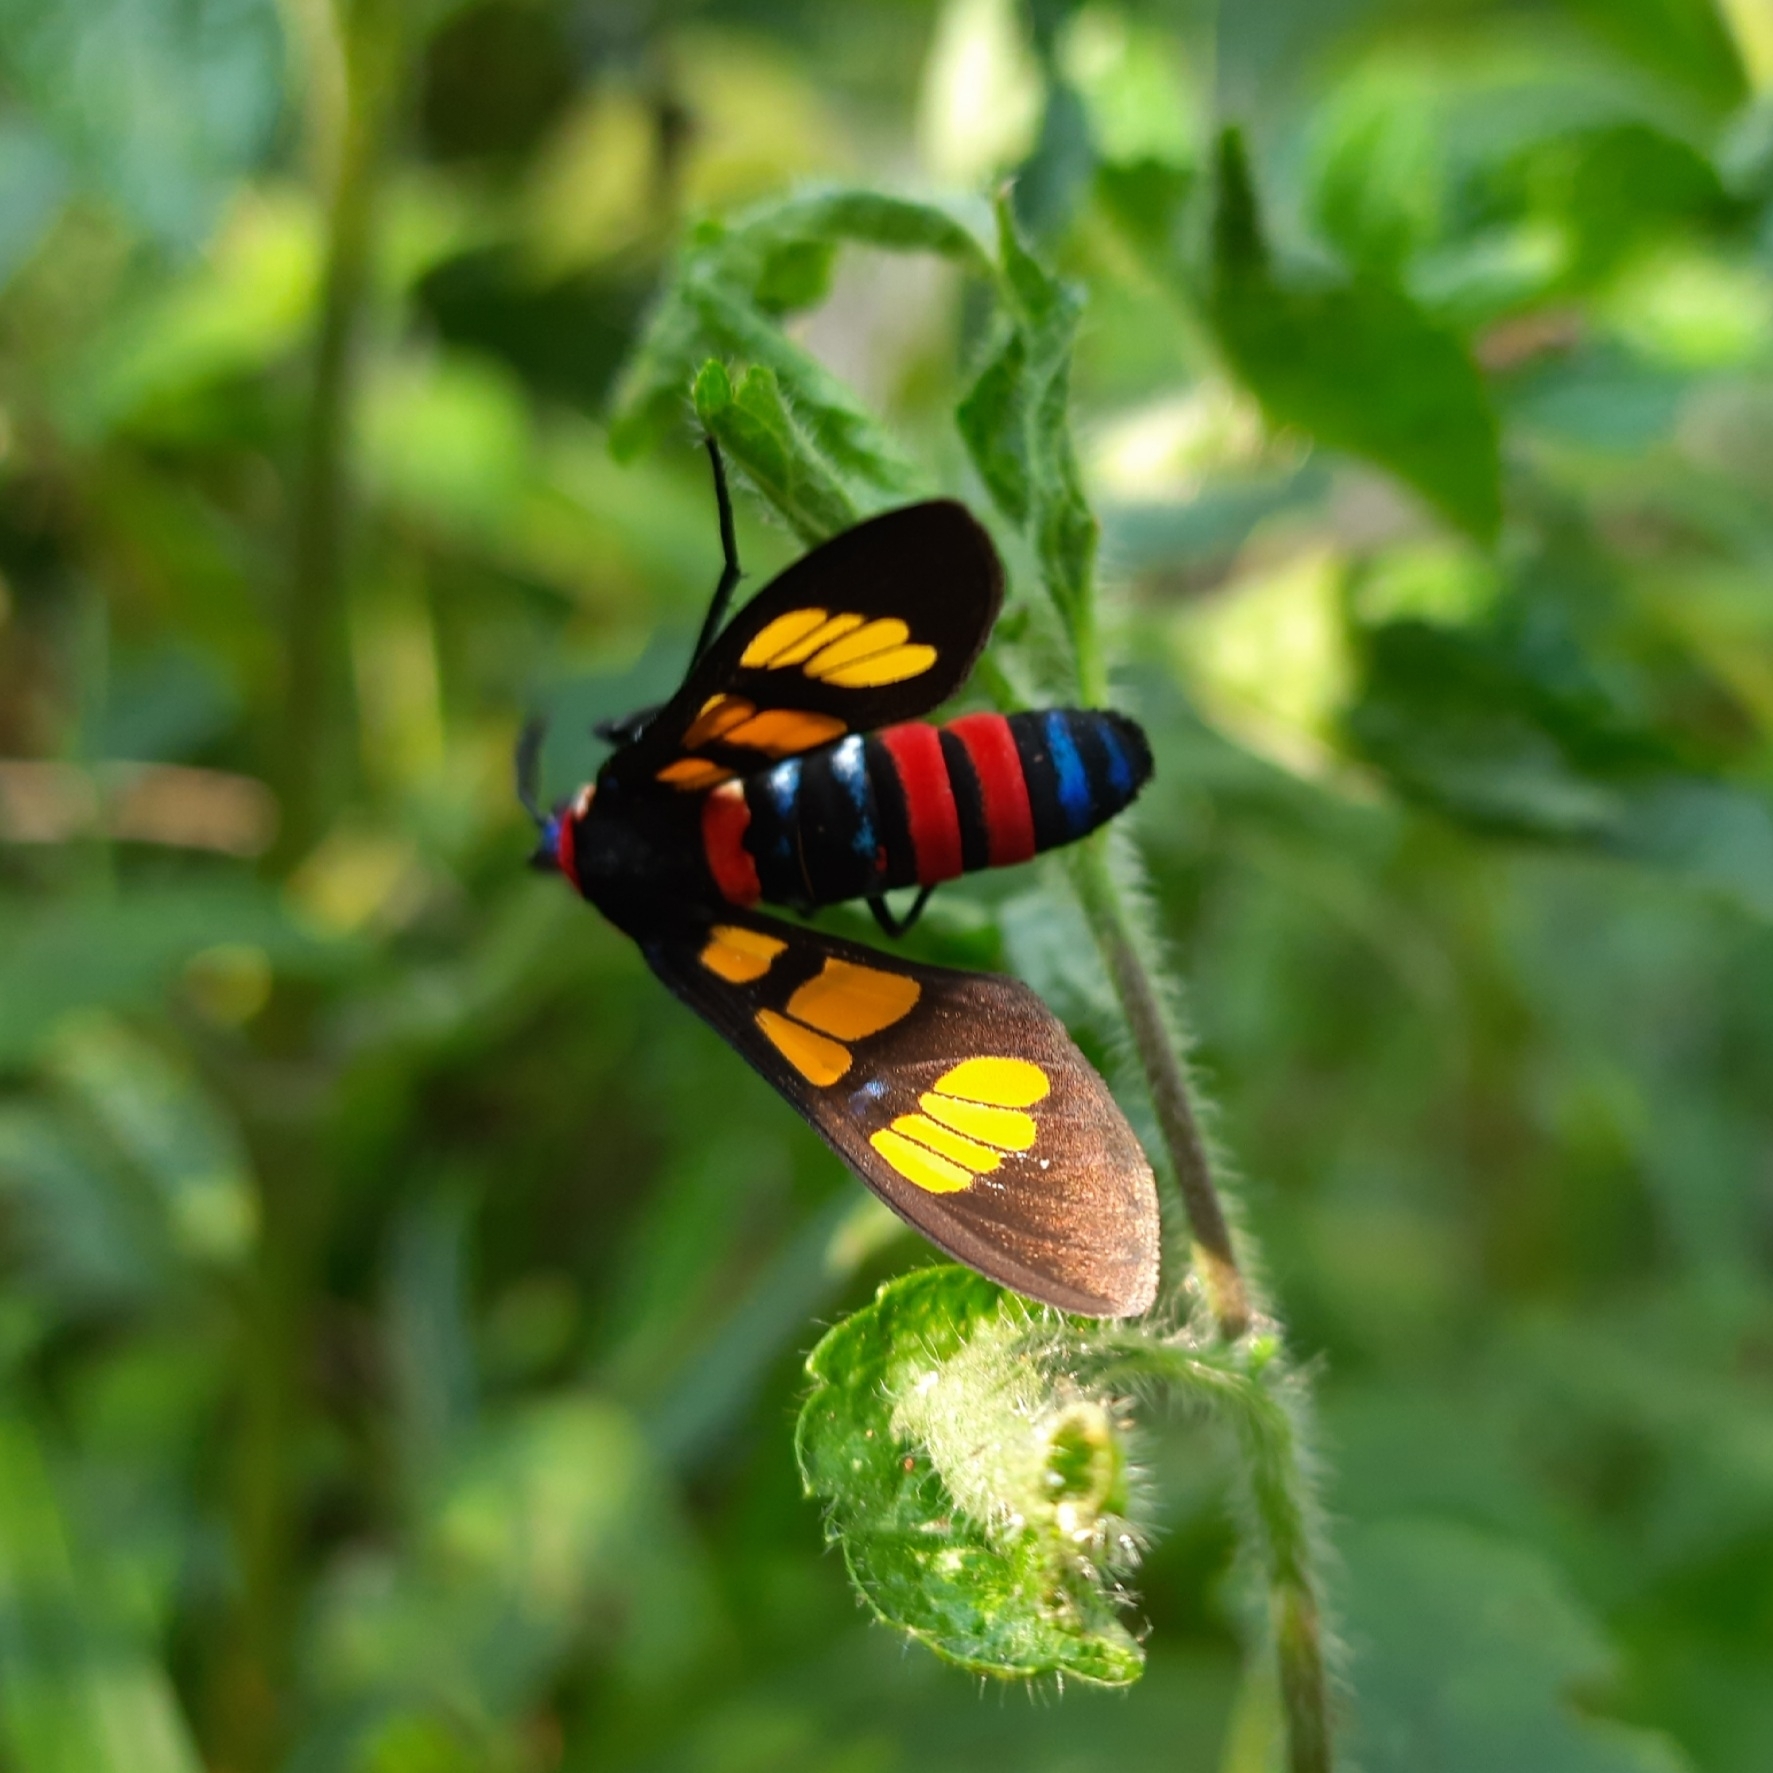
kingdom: Animalia
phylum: Arthropoda
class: Insecta
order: Lepidoptera
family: Erebidae
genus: Euchromia
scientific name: Euchromia polymena
